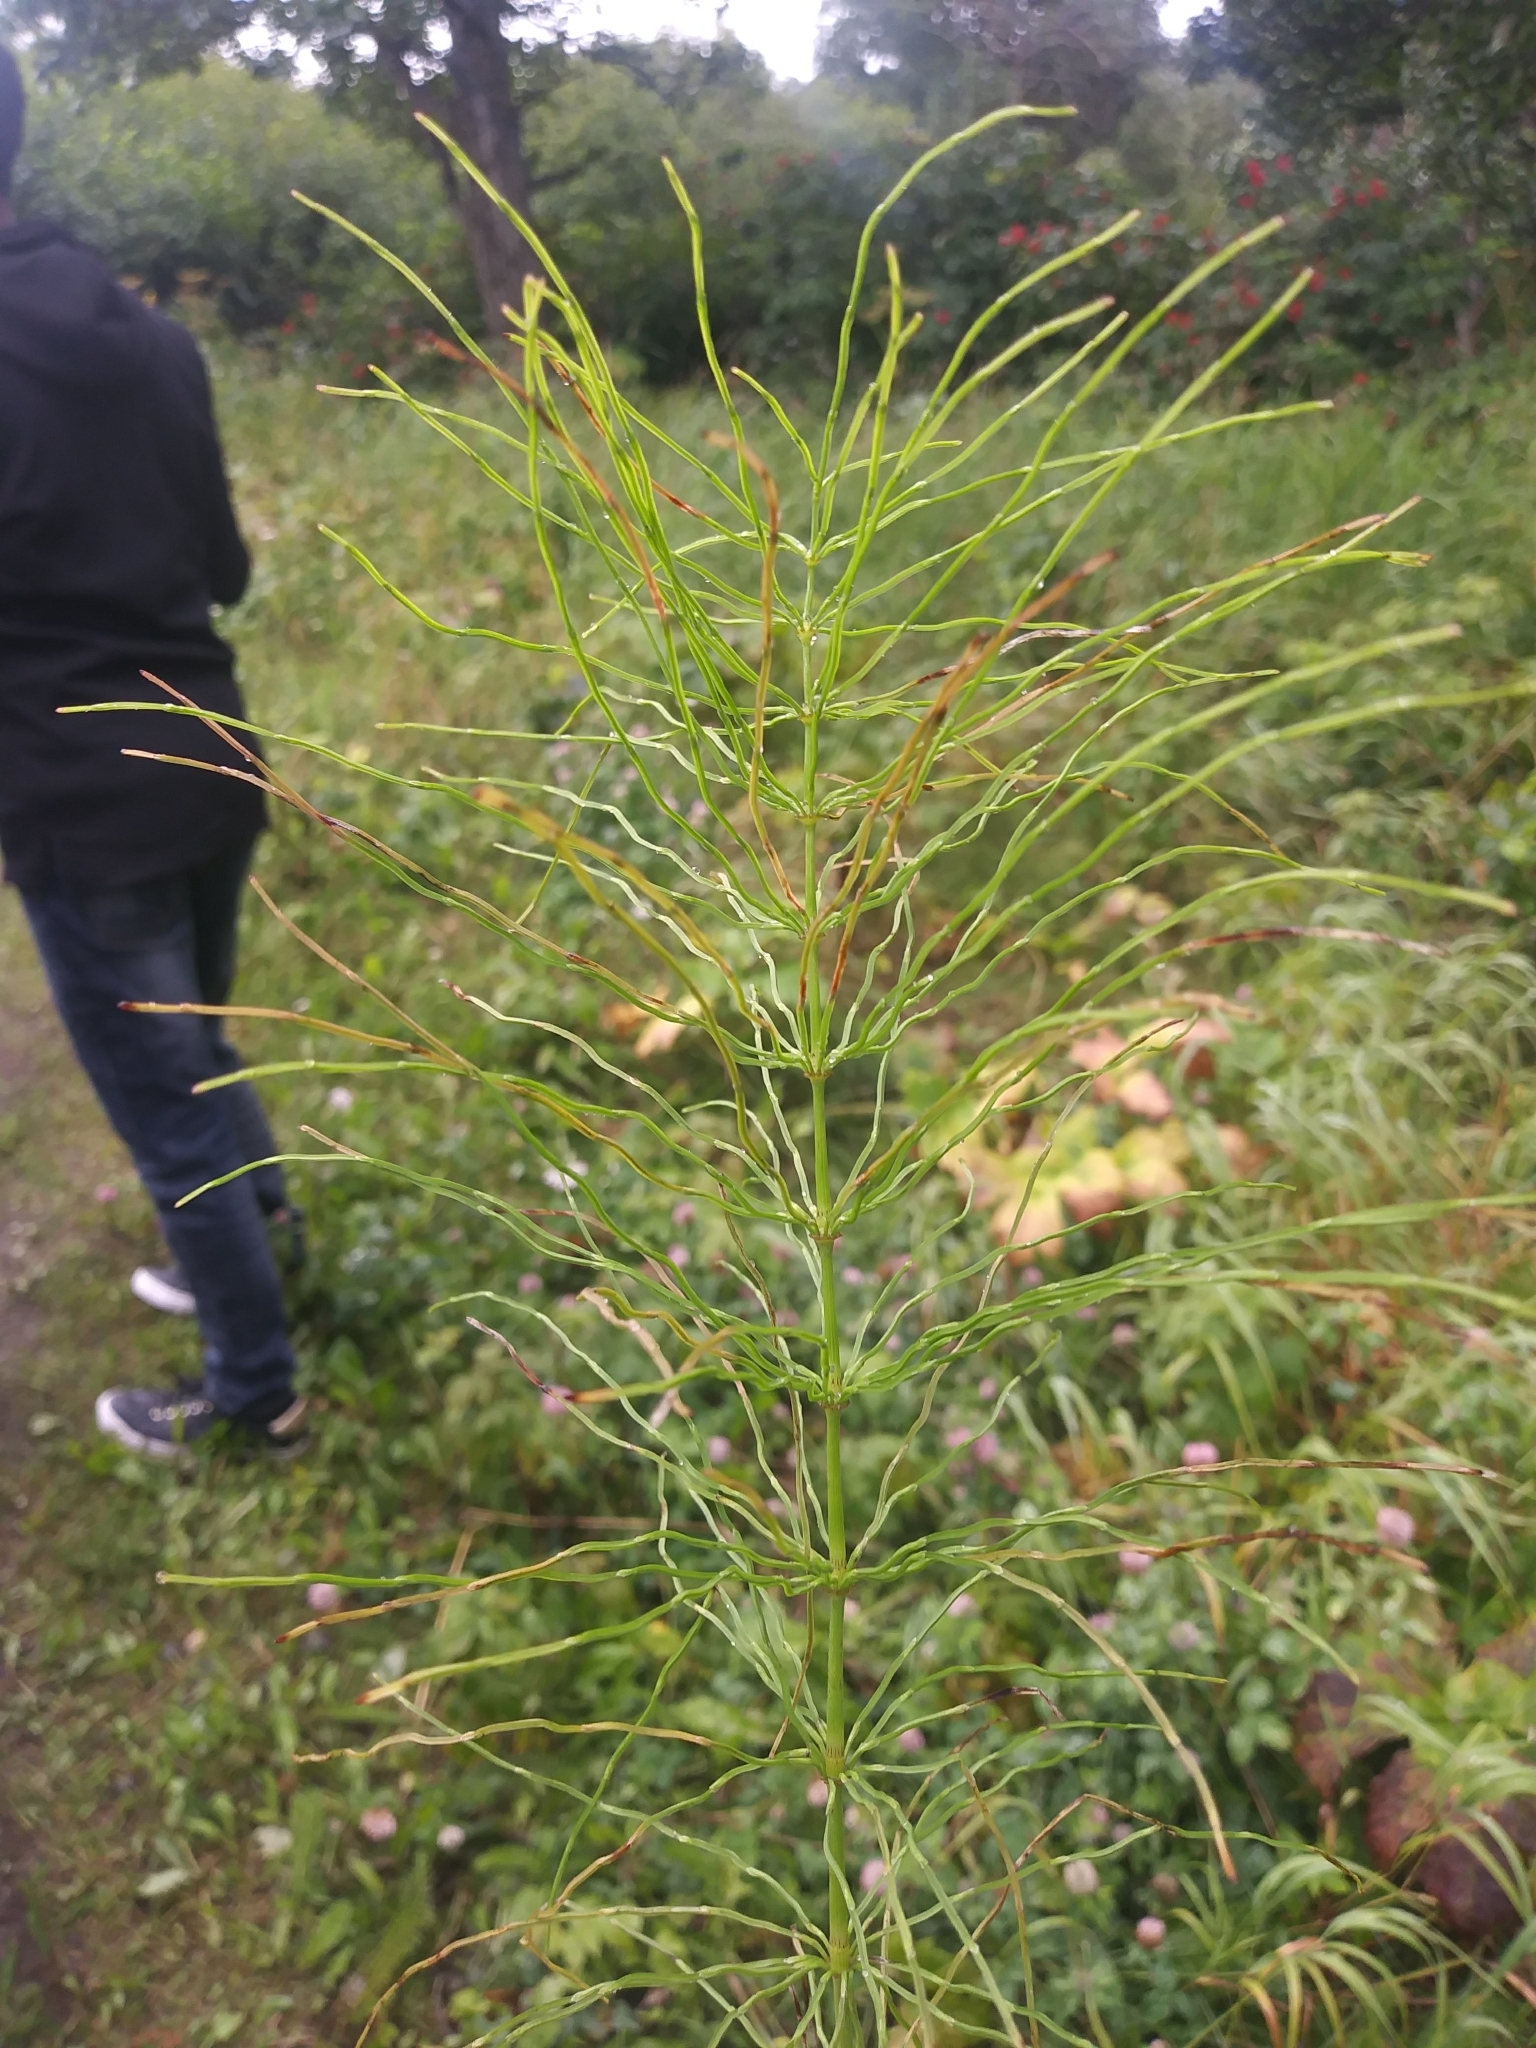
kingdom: Plantae
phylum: Tracheophyta
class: Polypodiopsida
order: Equisetales
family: Equisetaceae
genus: Equisetum
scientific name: Equisetum pratense
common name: Meadow horsetail
